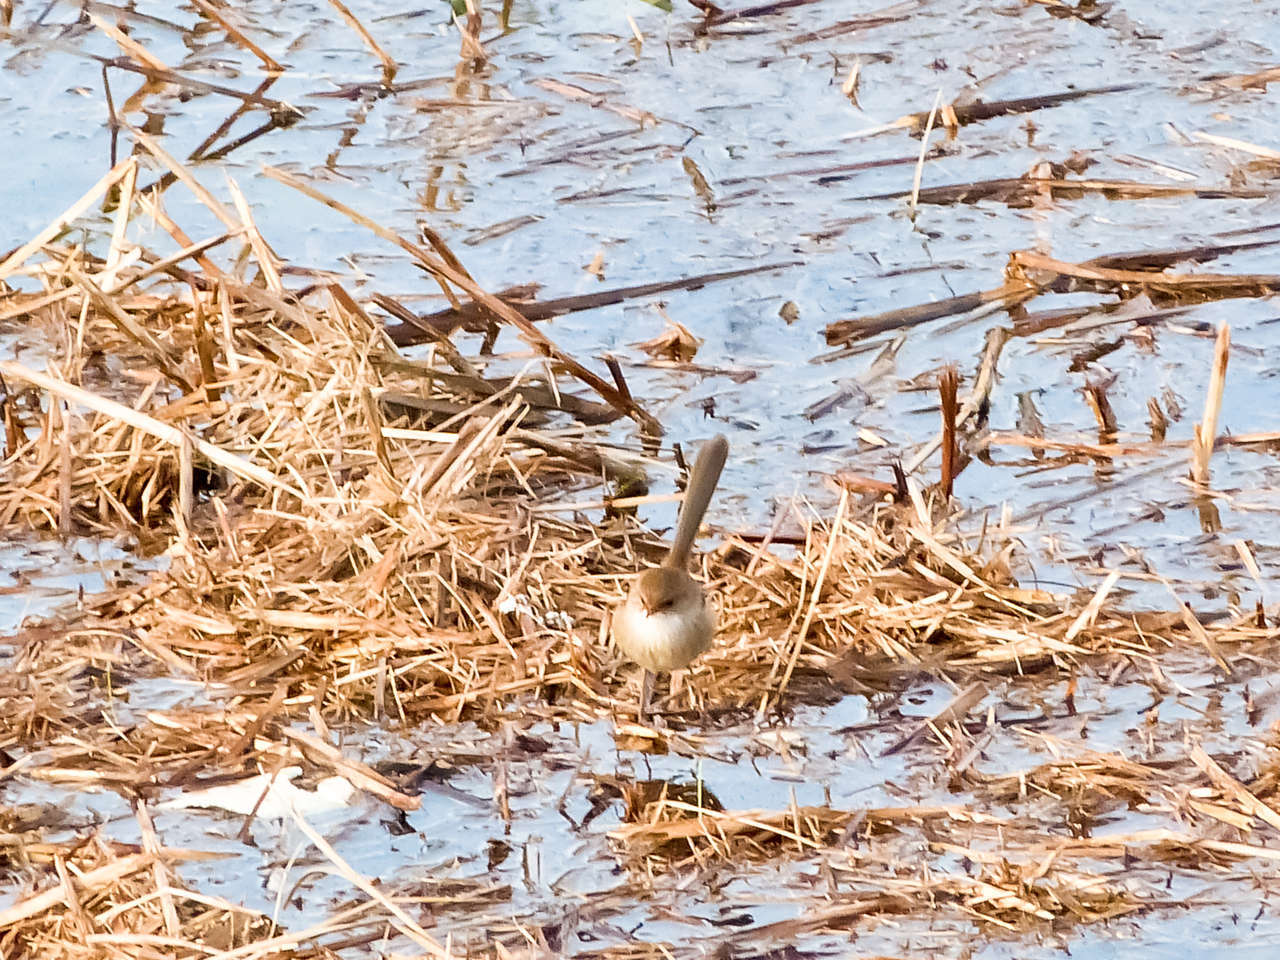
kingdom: Animalia
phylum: Chordata
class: Aves
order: Passeriformes
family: Maluridae
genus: Malurus
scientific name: Malurus cyaneus
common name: Superb fairywren
